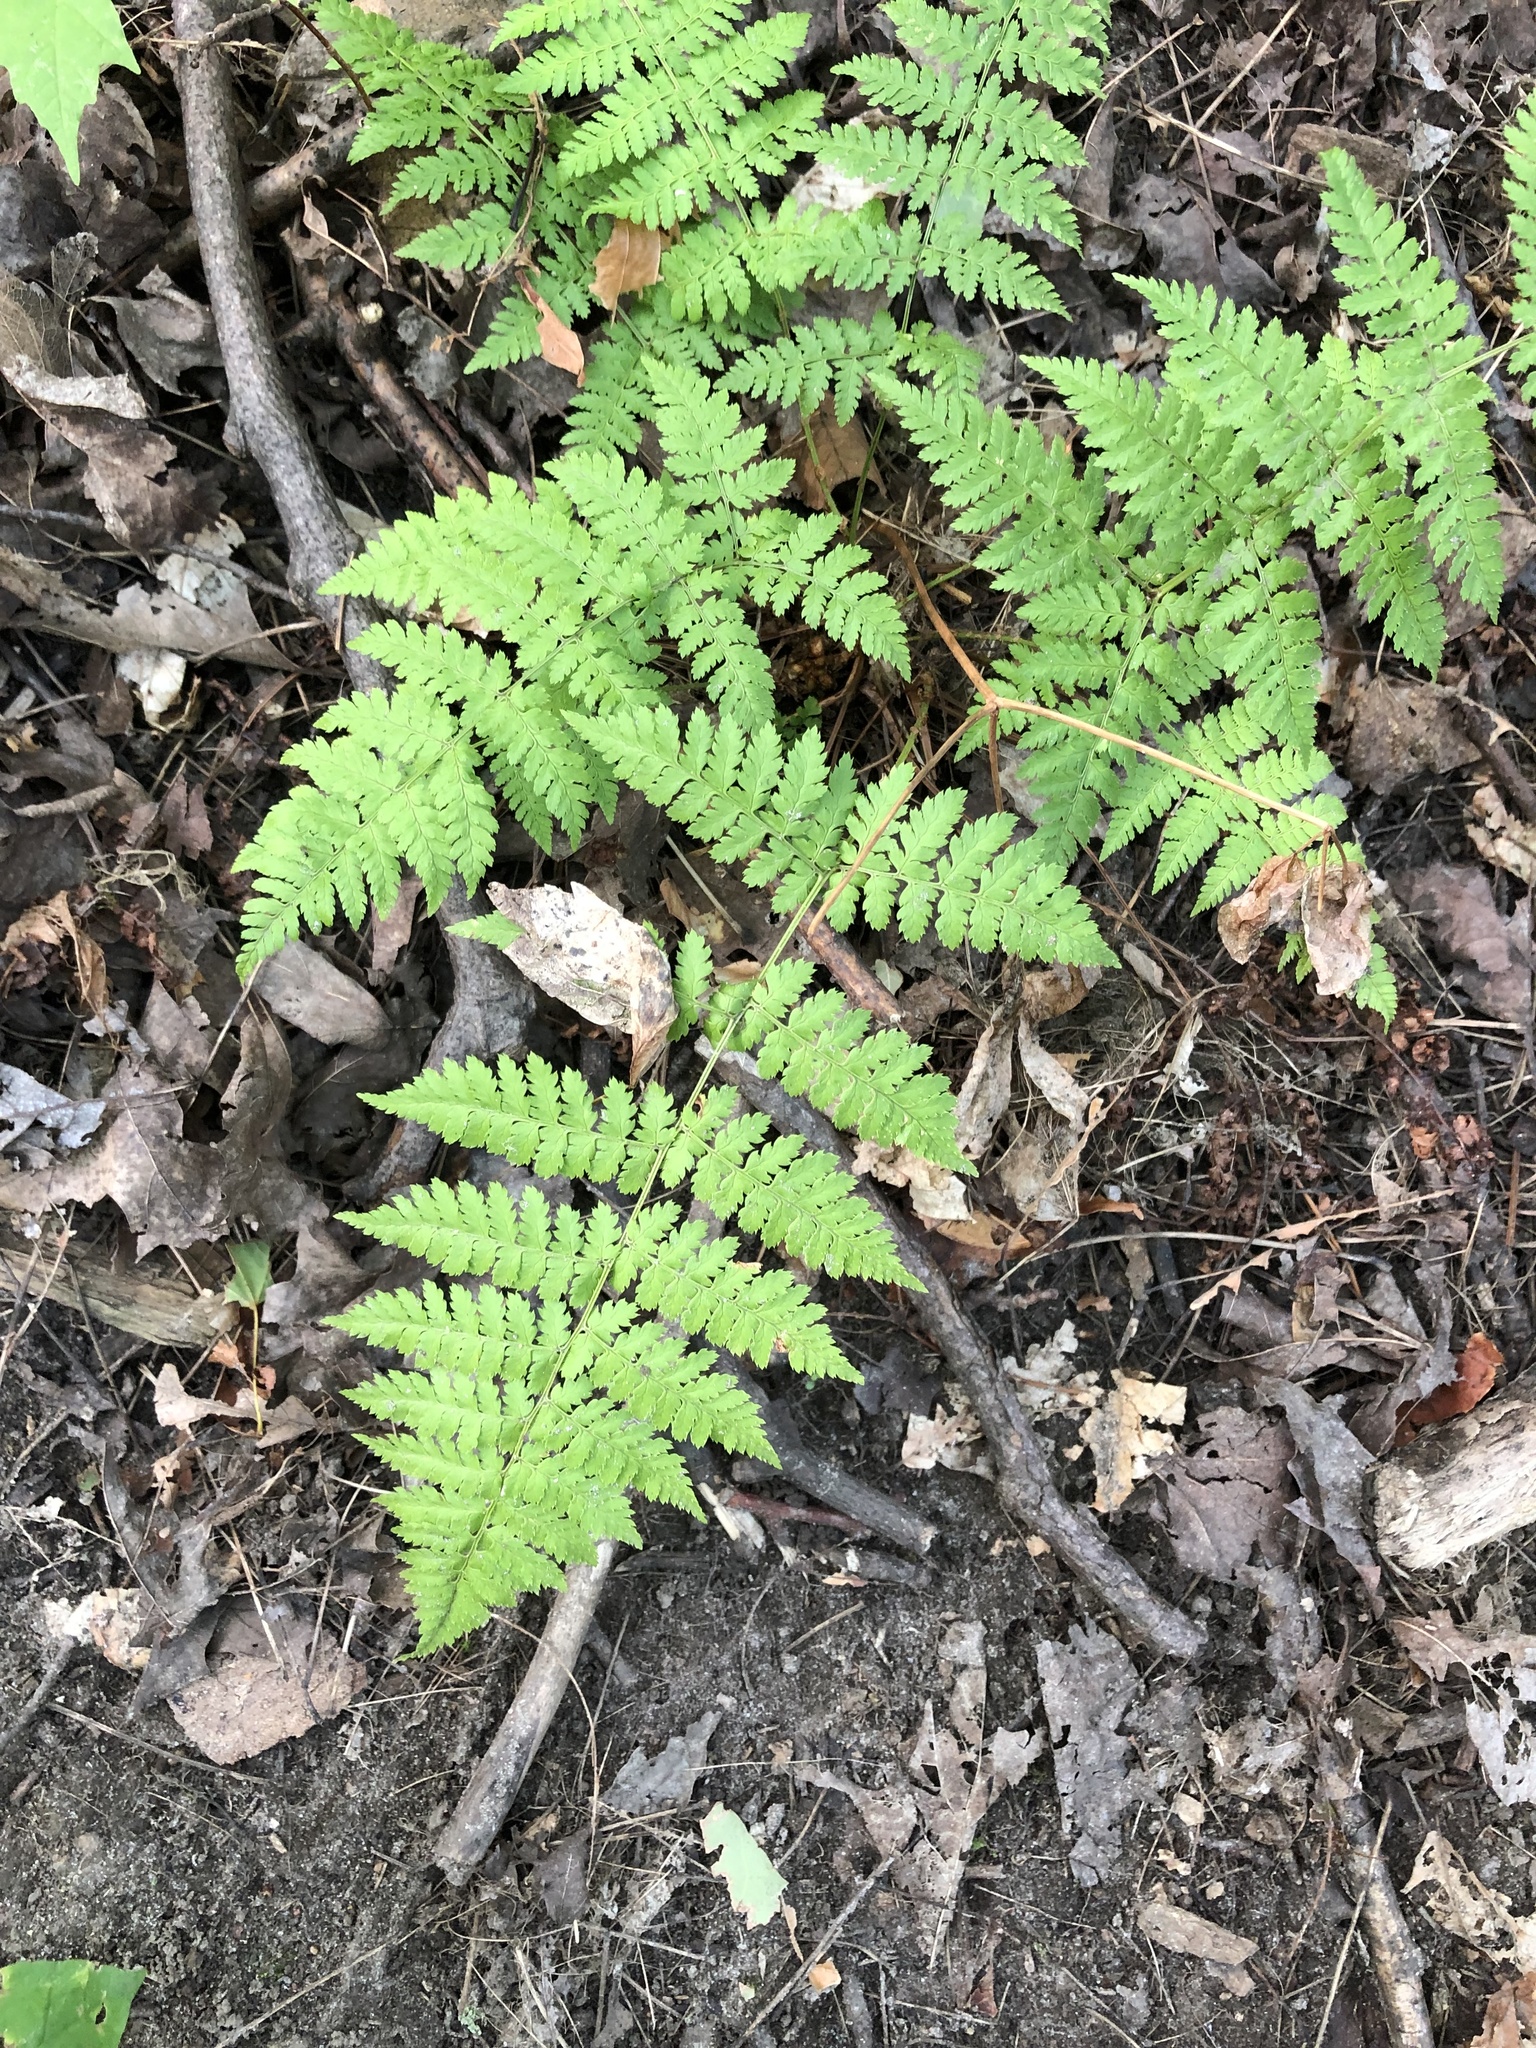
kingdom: Plantae
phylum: Tracheophyta
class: Polypodiopsida
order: Polypodiales
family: Dryopteridaceae
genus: Dryopteris
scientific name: Dryopteris intermedia
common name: Evergreen wood fern
